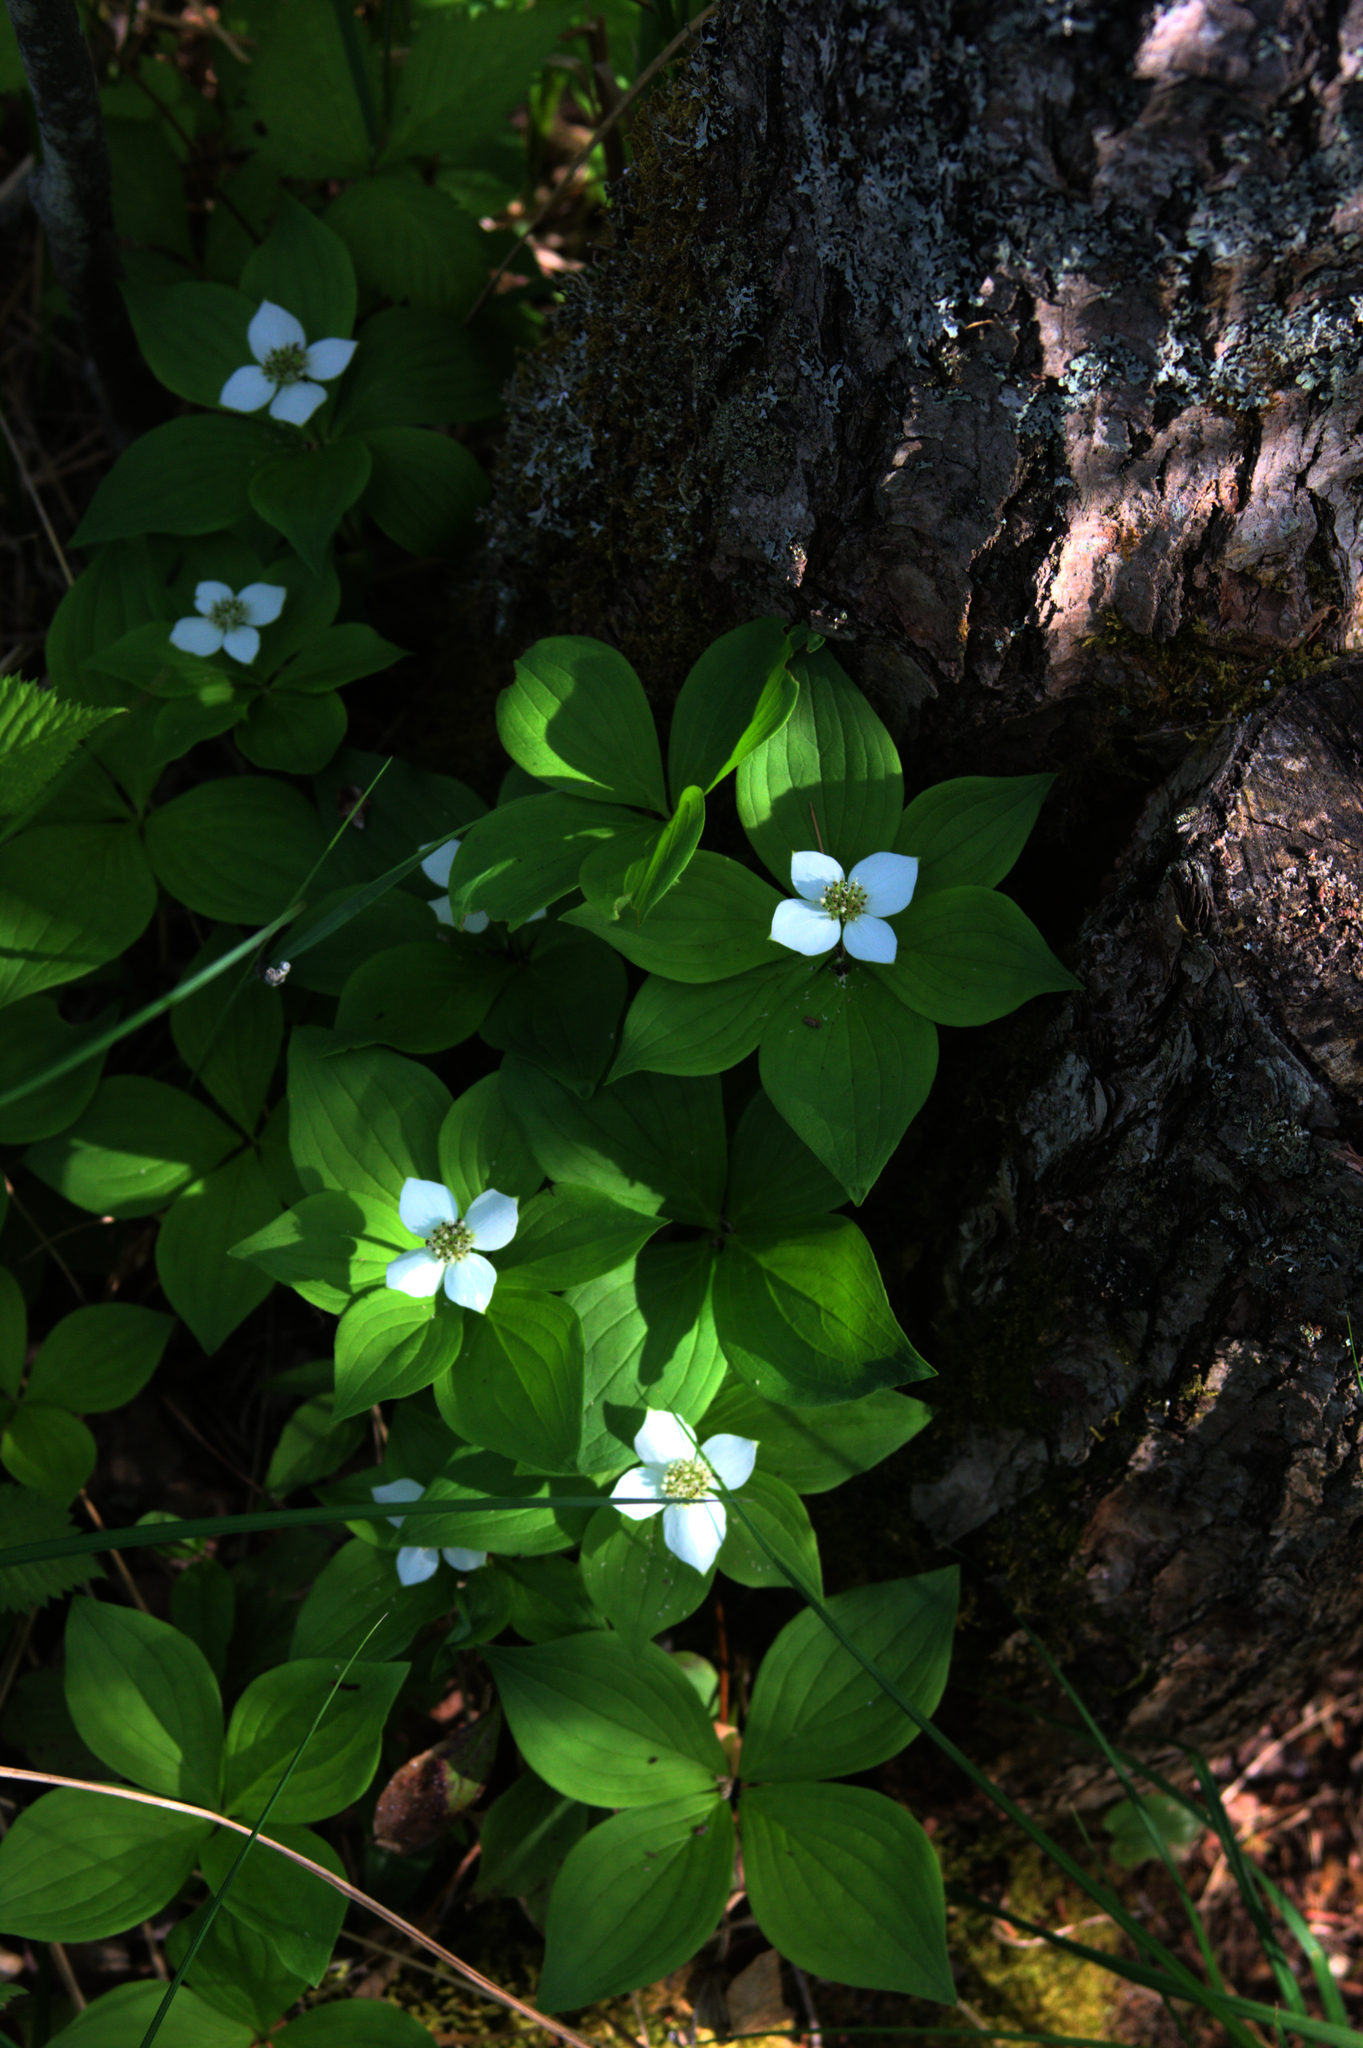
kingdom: Plantae
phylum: Tracheophyta
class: Magnoliopsida
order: Cornales
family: Cornaceae
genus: Cornus
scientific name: Cornus canadensis
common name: Creeping dogwood
